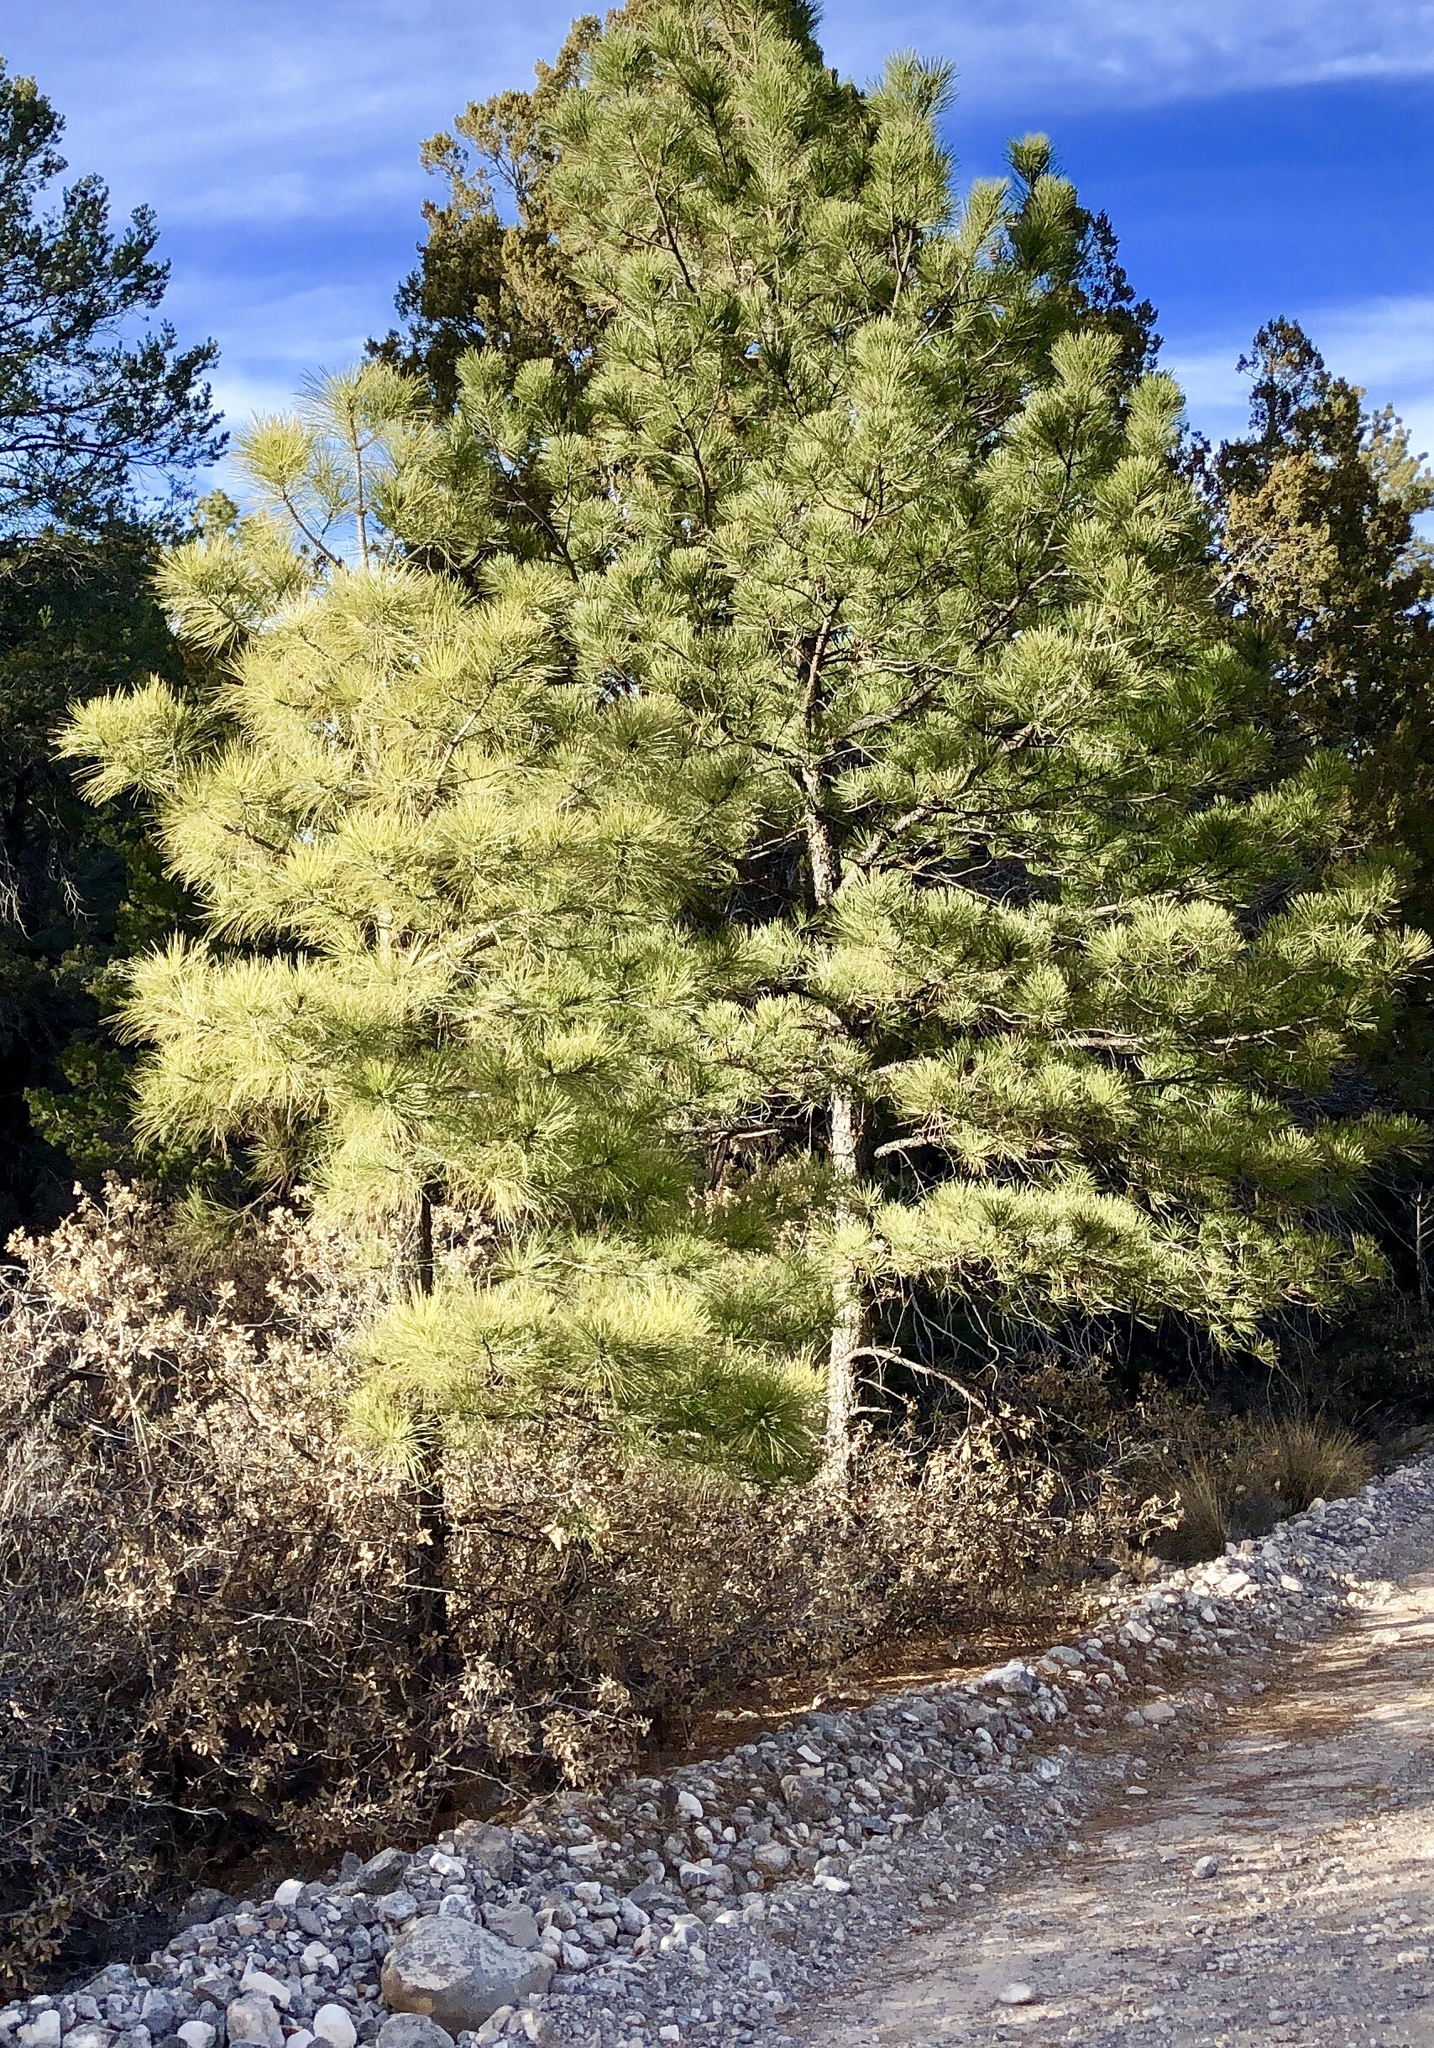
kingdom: Plantae
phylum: Tracheophyta
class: Pinopsida
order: Pinales
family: Pinaceae
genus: Pinus
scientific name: Pinus ponderosa
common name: Western yellow-pine
